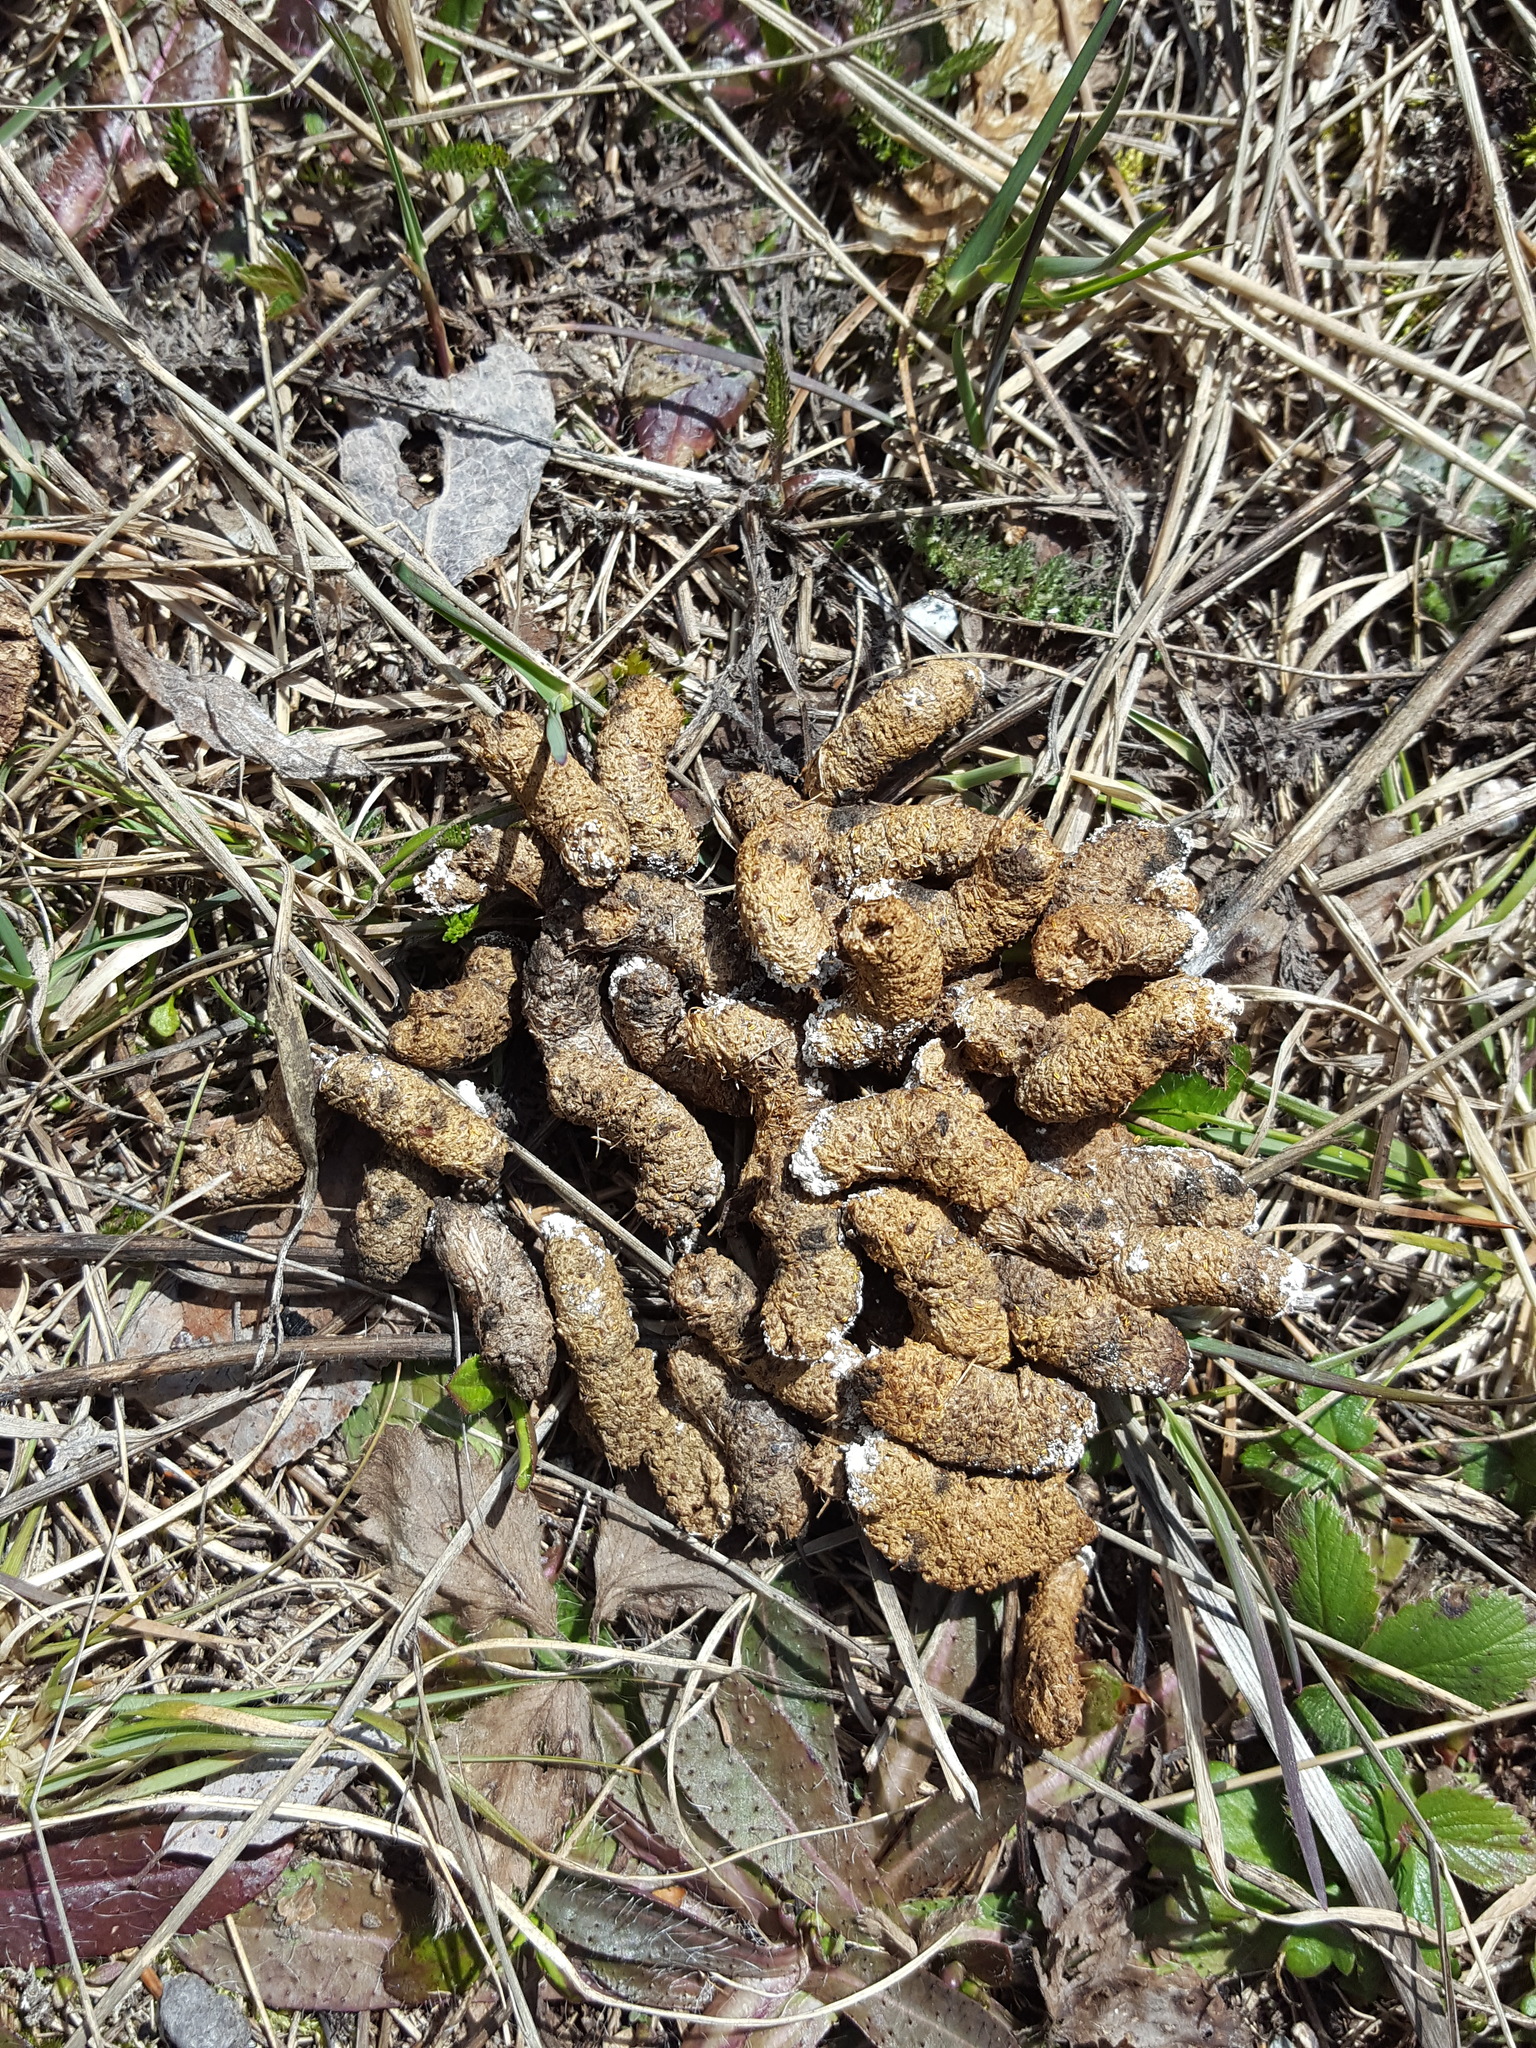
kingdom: Animalia
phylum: Chordata
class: Aves
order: Galliformes
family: Phasianidae
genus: Bonasa
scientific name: Bonasa umbellus
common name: Ruffed grouse
